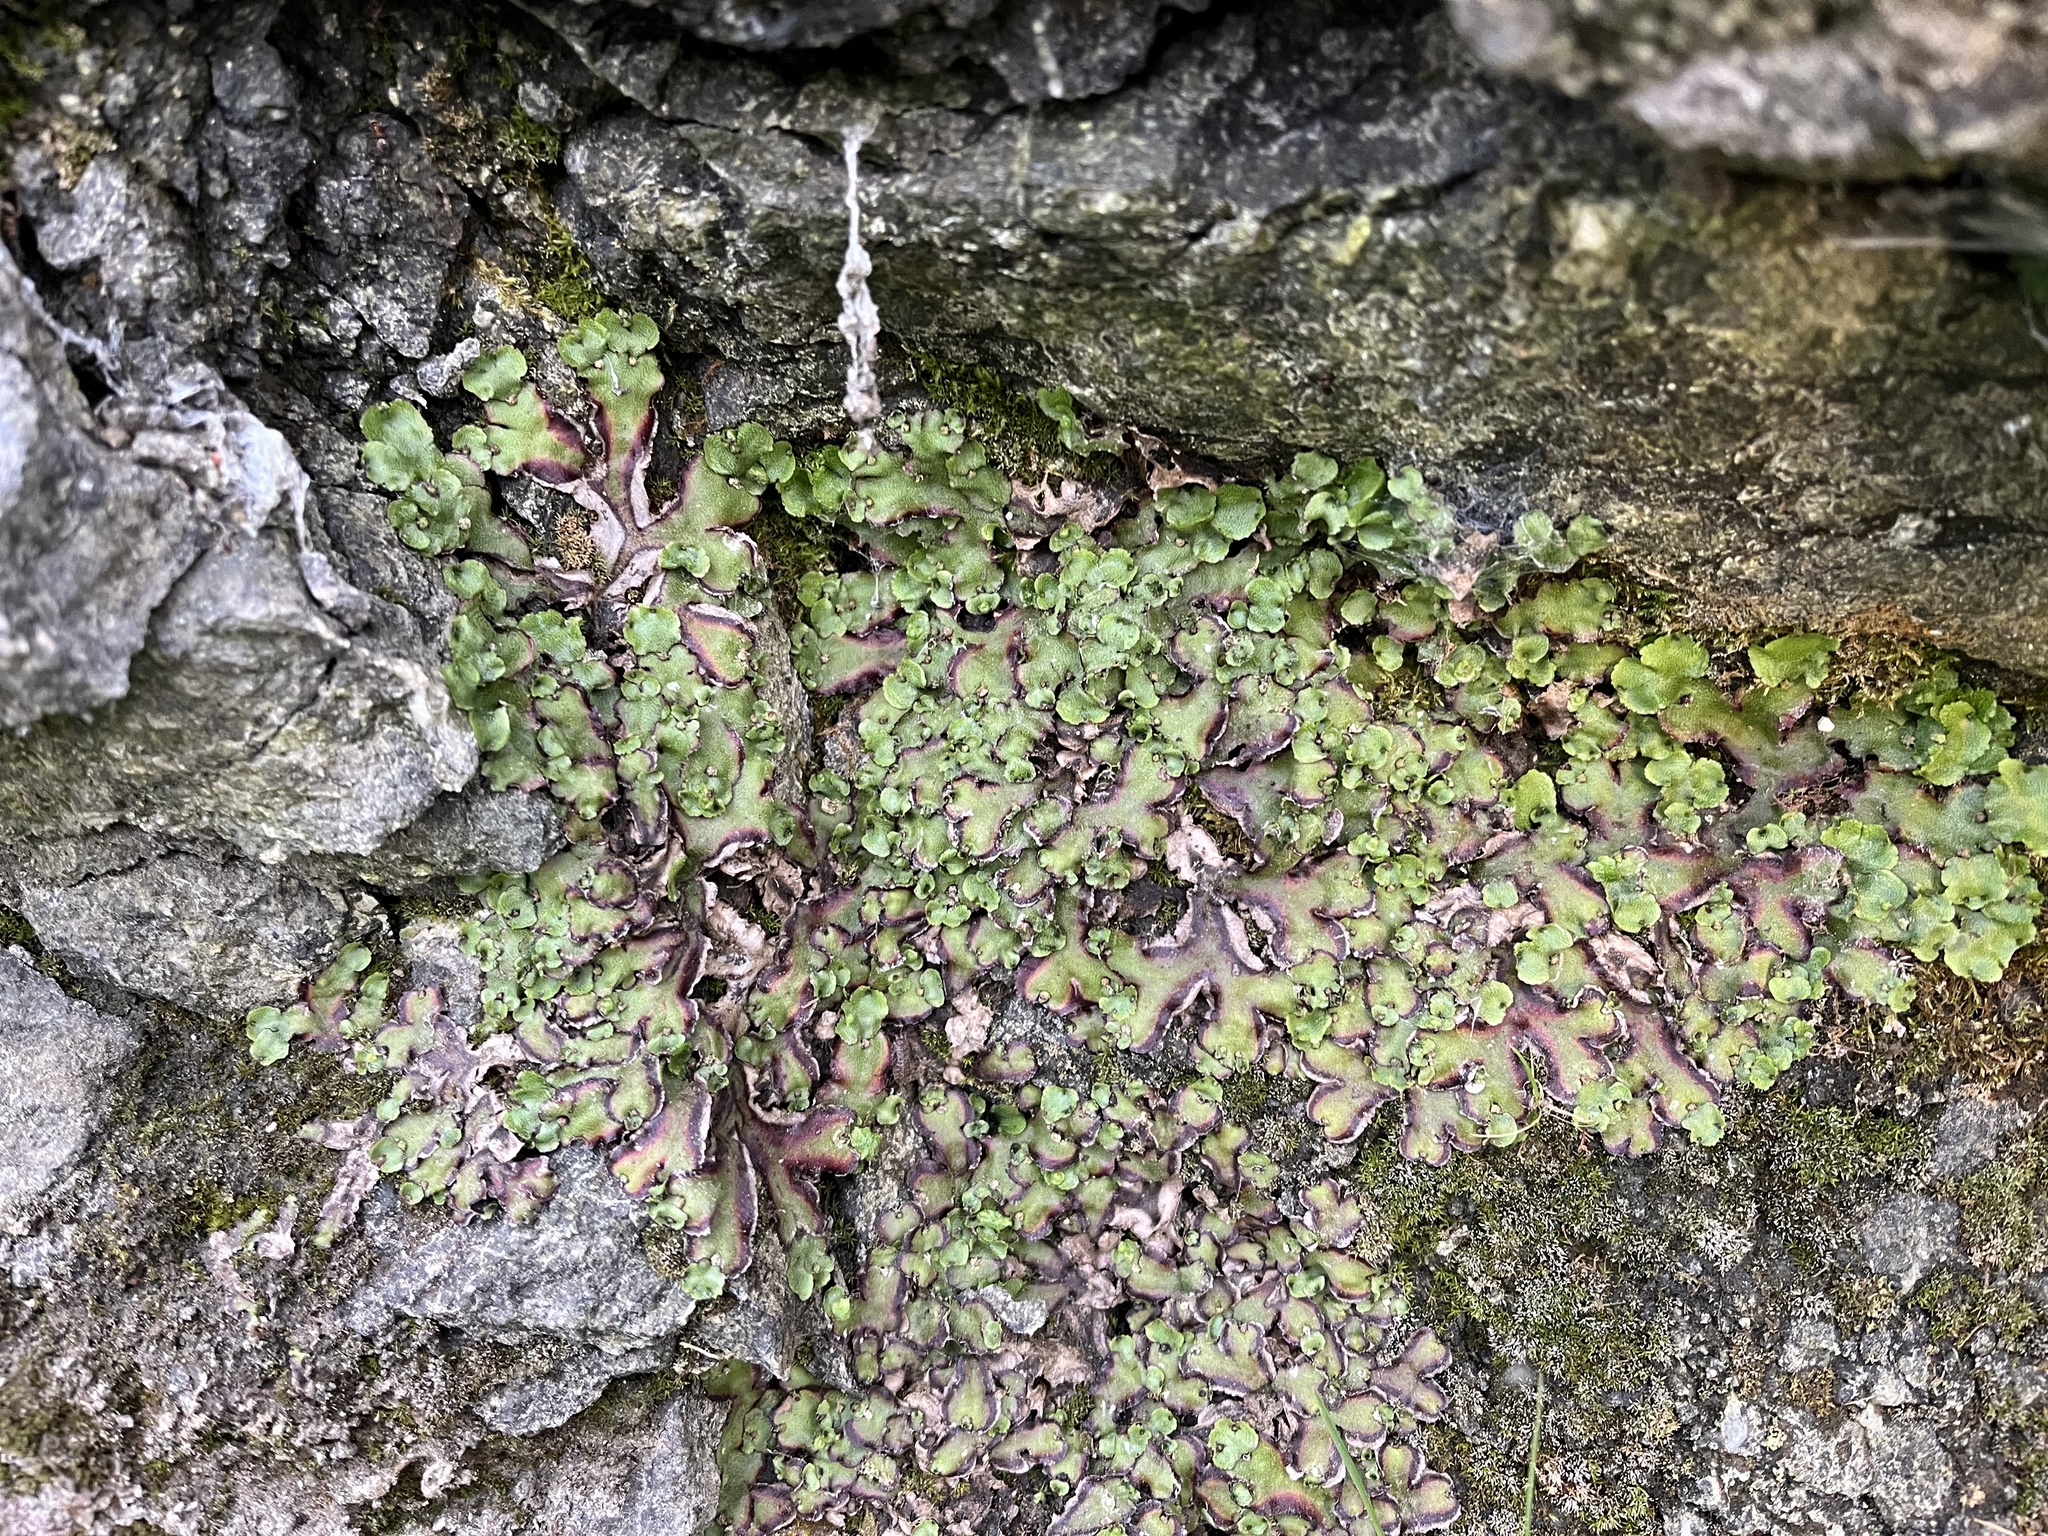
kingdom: Plantae
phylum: Marchantiophyta
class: Marchantiopsida
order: Marchantiales
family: Marchantiaceae
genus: Marchantia
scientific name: Marchantia quadrata
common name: Narrow mushroom-headed liverwort
